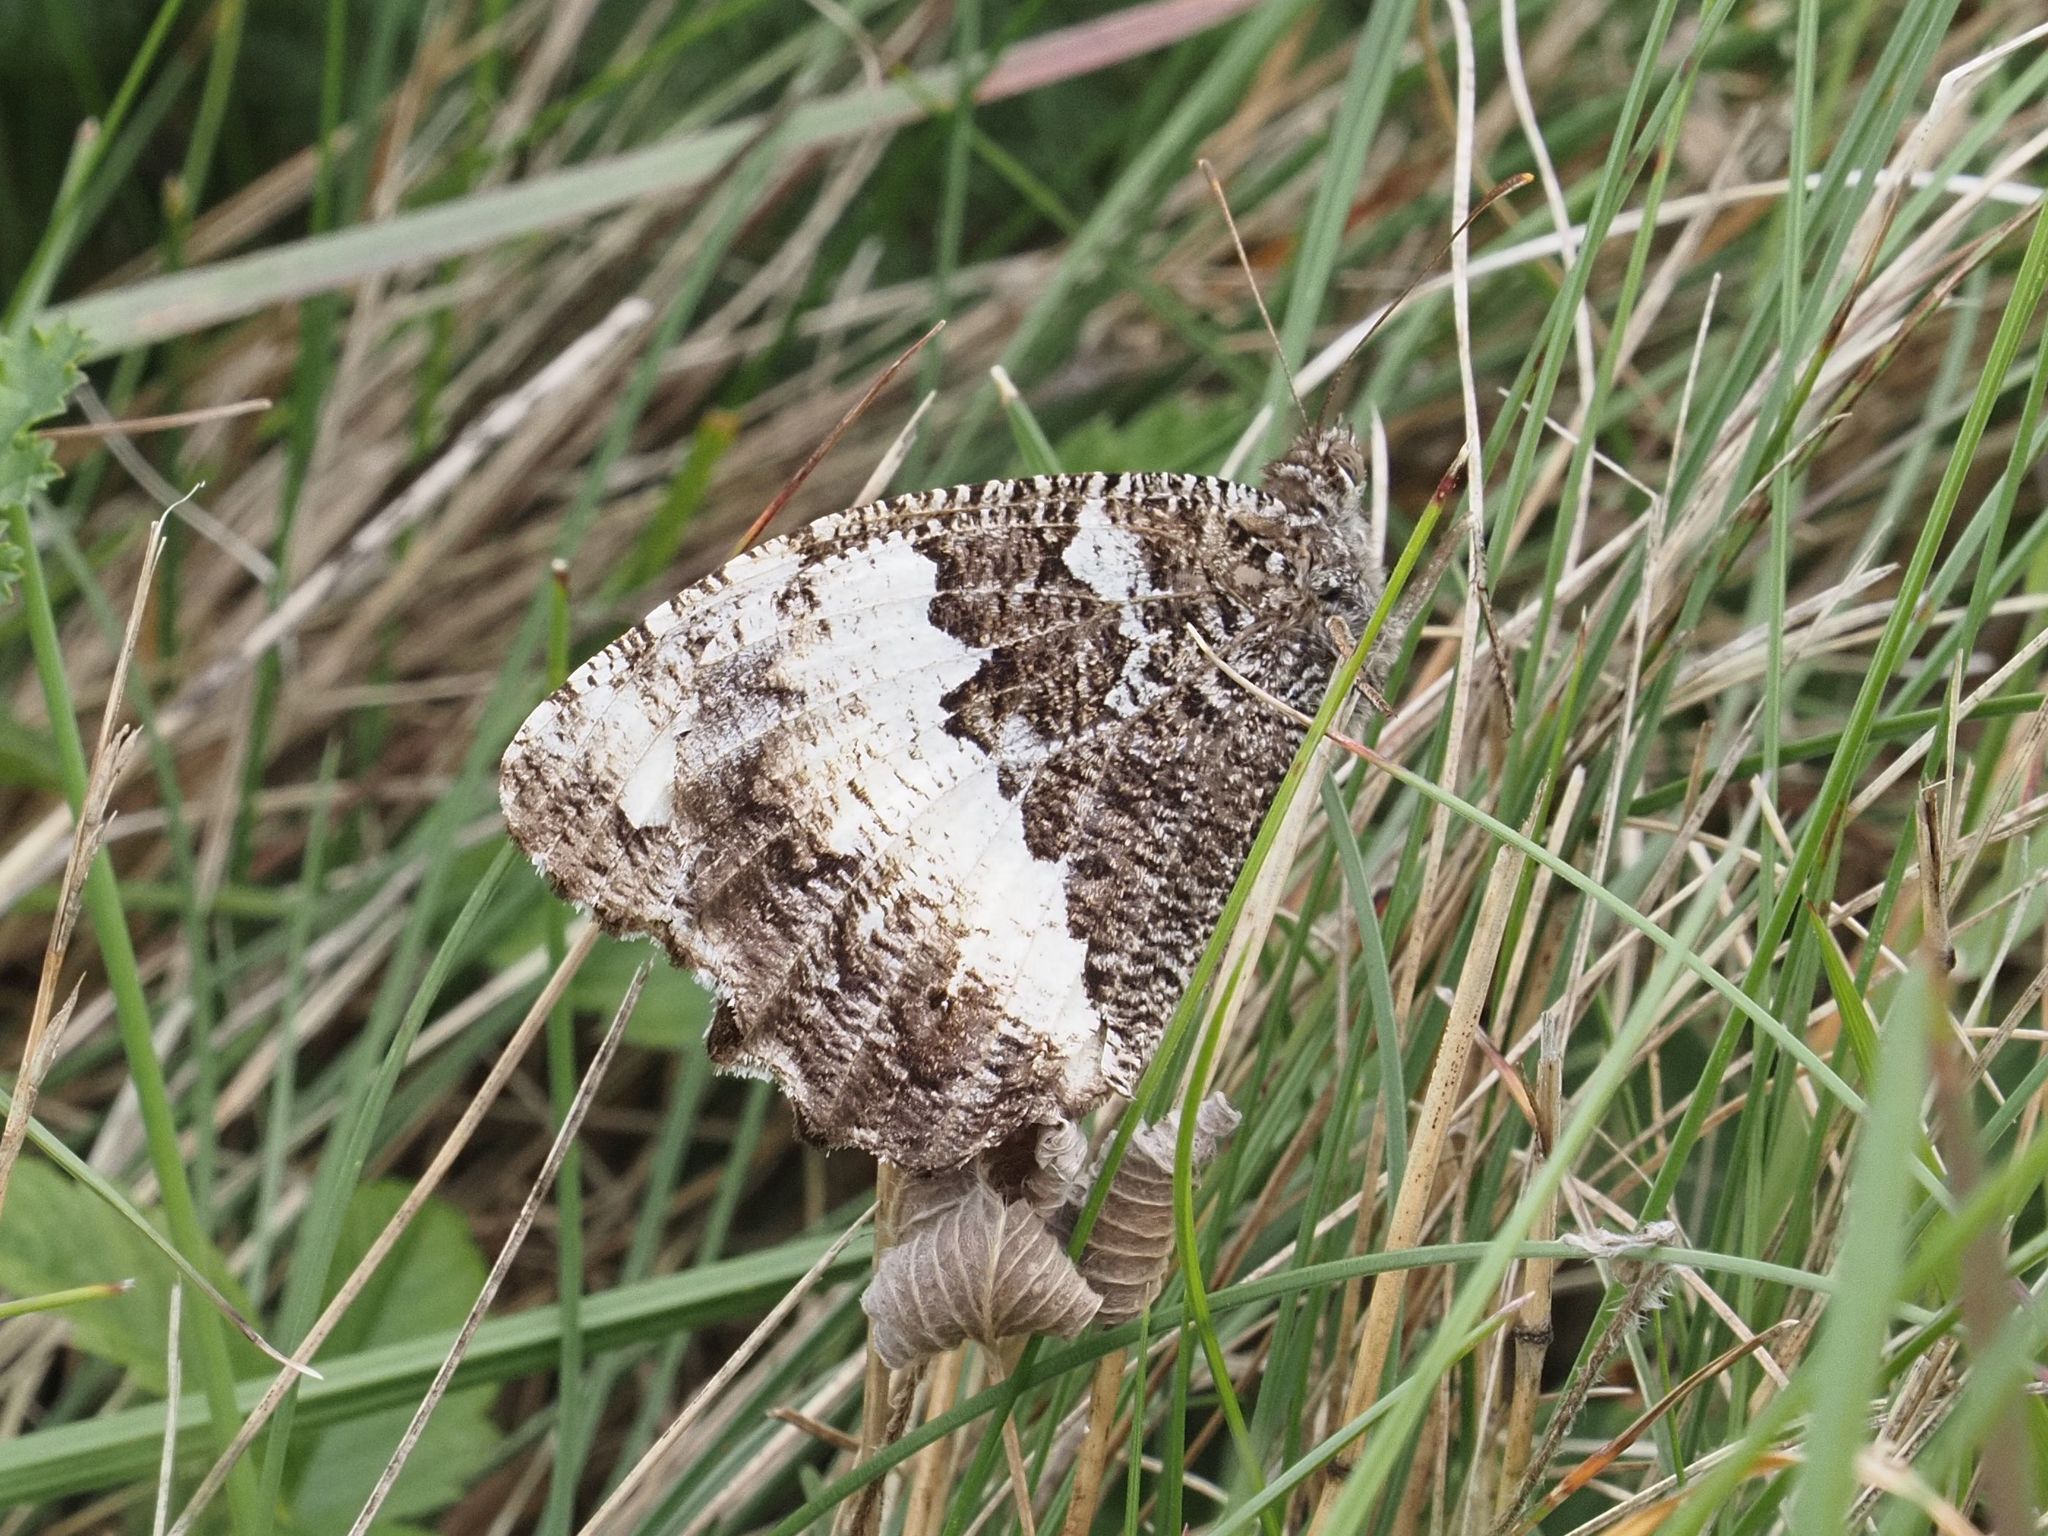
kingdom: Animalia
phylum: Arthropoda
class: Insecta
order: Lepidoptera
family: Lycaenidae
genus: Loweia
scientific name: Loweia tityrus
